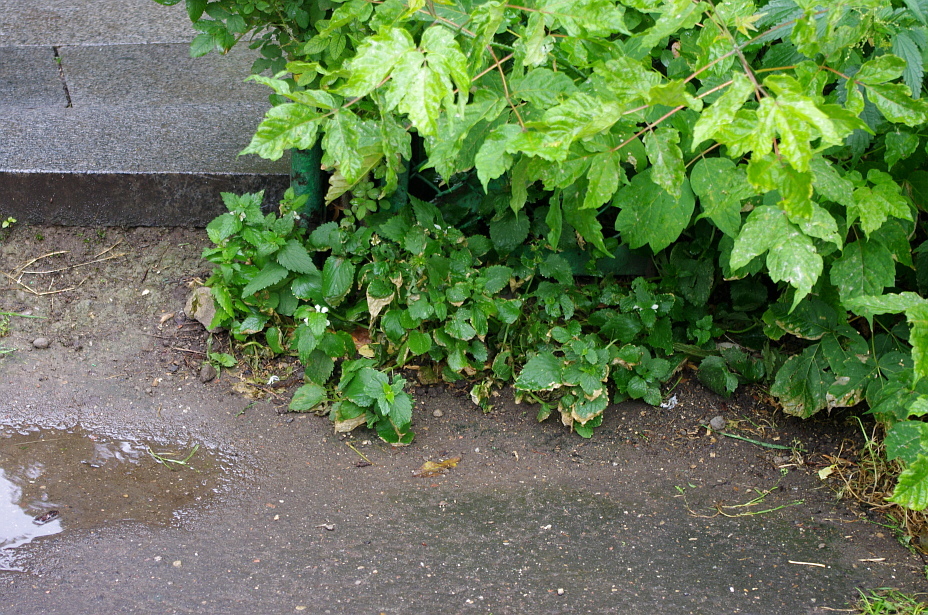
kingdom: Plantae
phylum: Tracheophyta
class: Magnoliopsida
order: Lamiales
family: Lamiaceae
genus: Lamium
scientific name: Lamium album
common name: White dead-nettle
